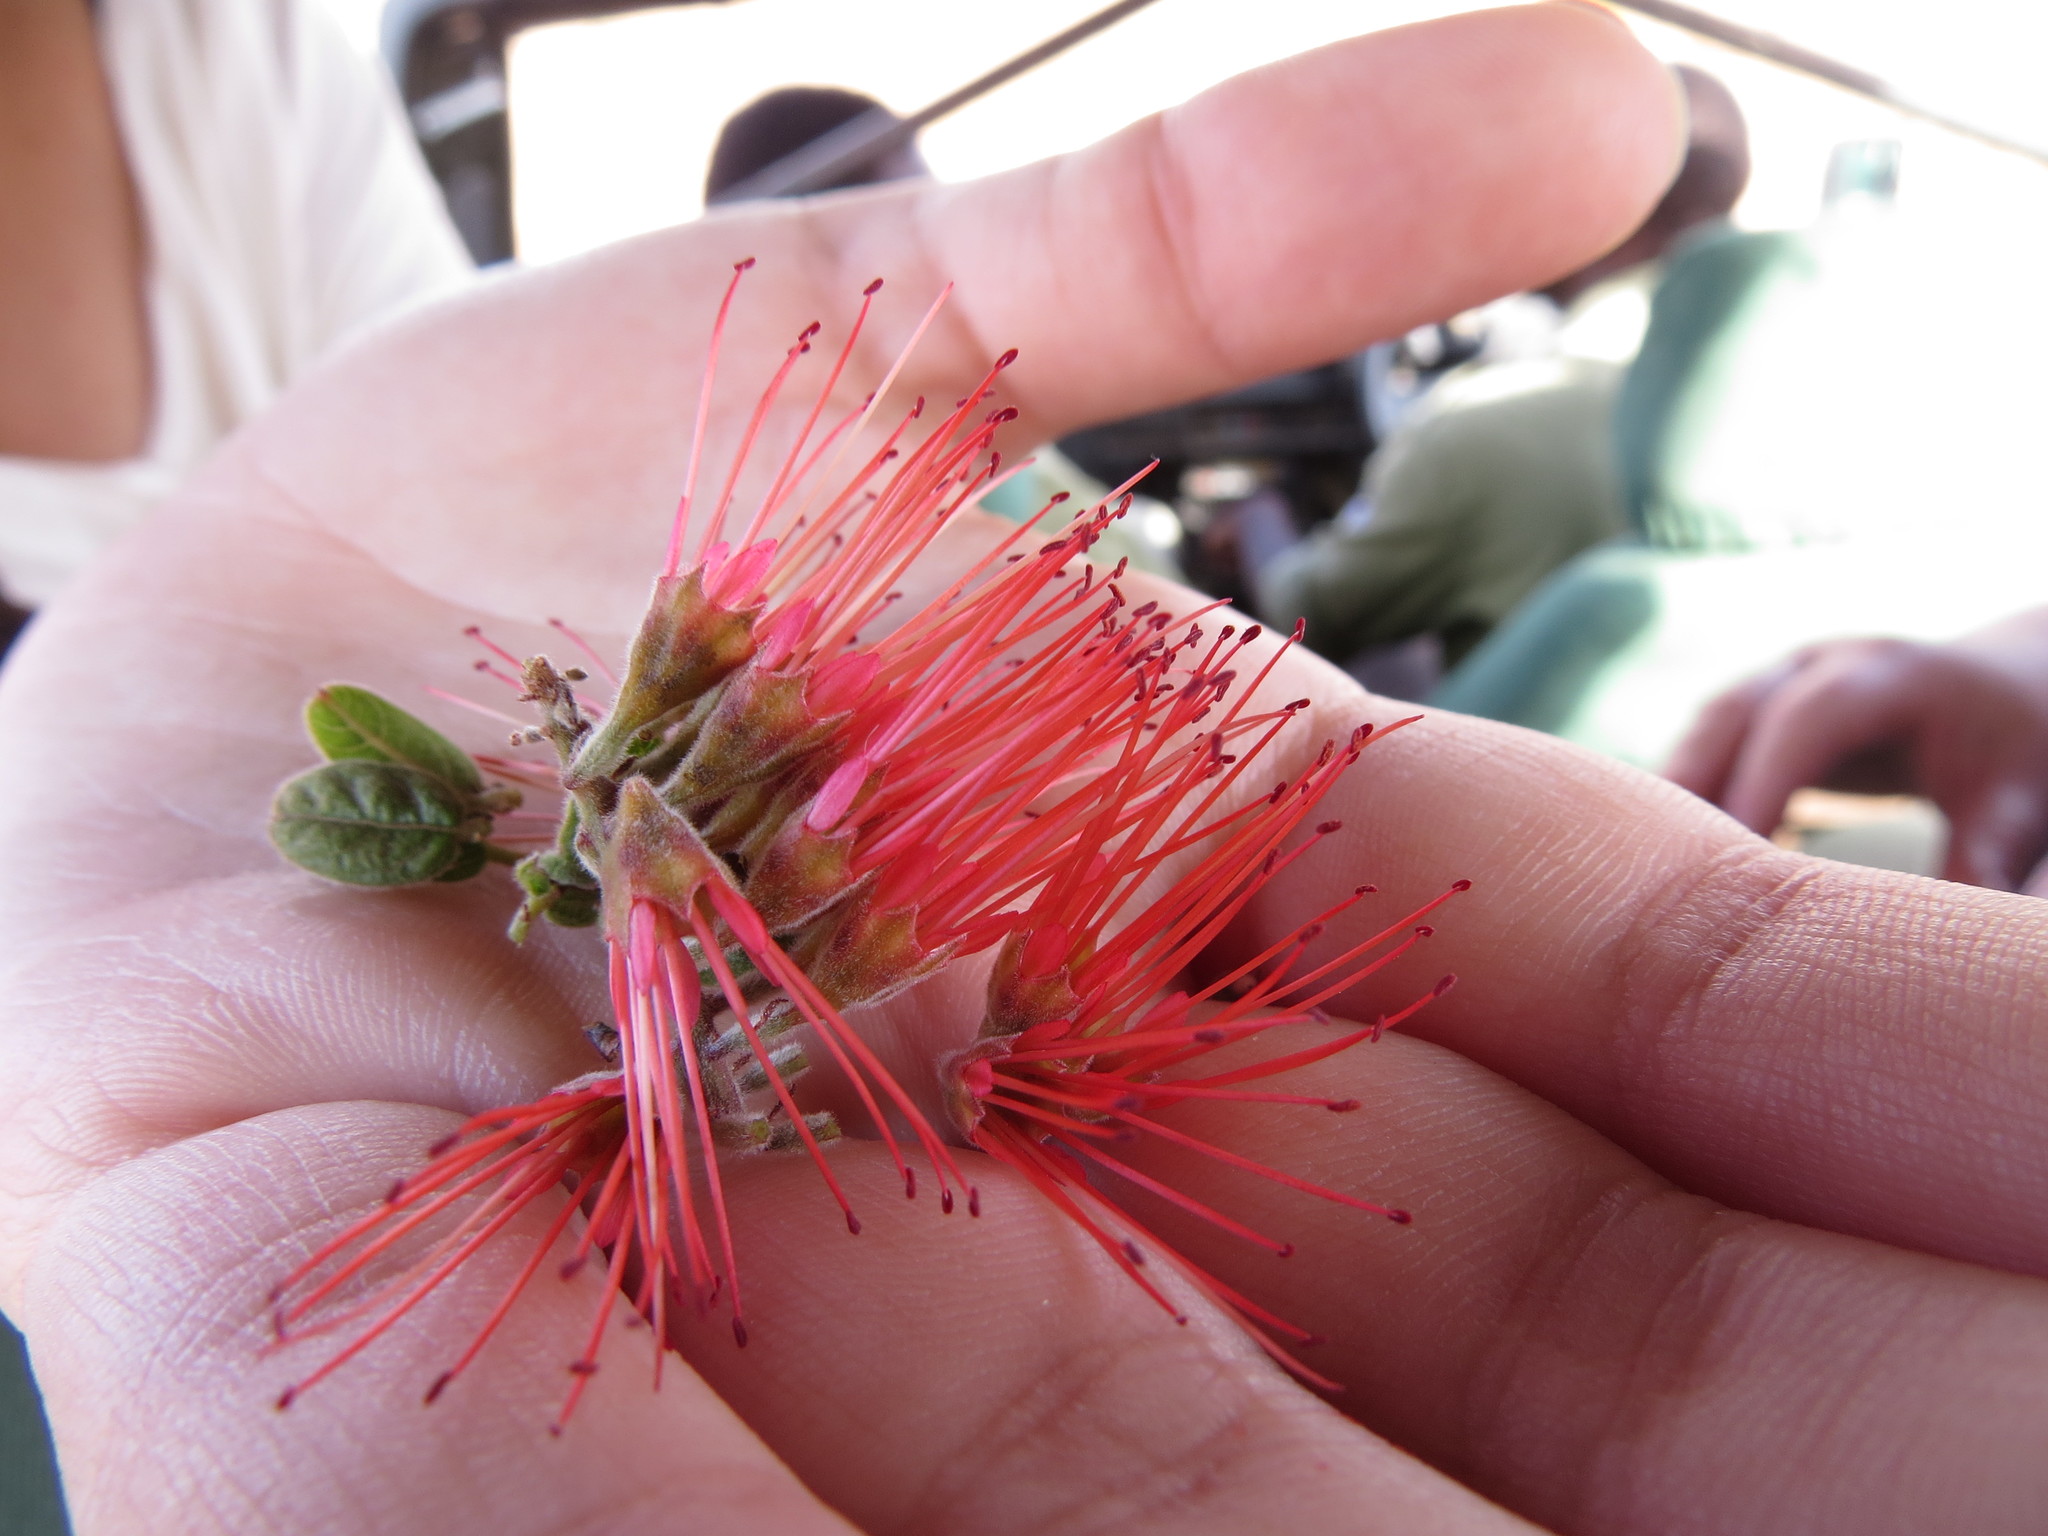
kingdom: Plantae
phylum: Tracheophyta
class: Magnoliopsida
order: Myrtales
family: Combretaceae
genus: Combretum
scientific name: Combretum purpureiflorum
